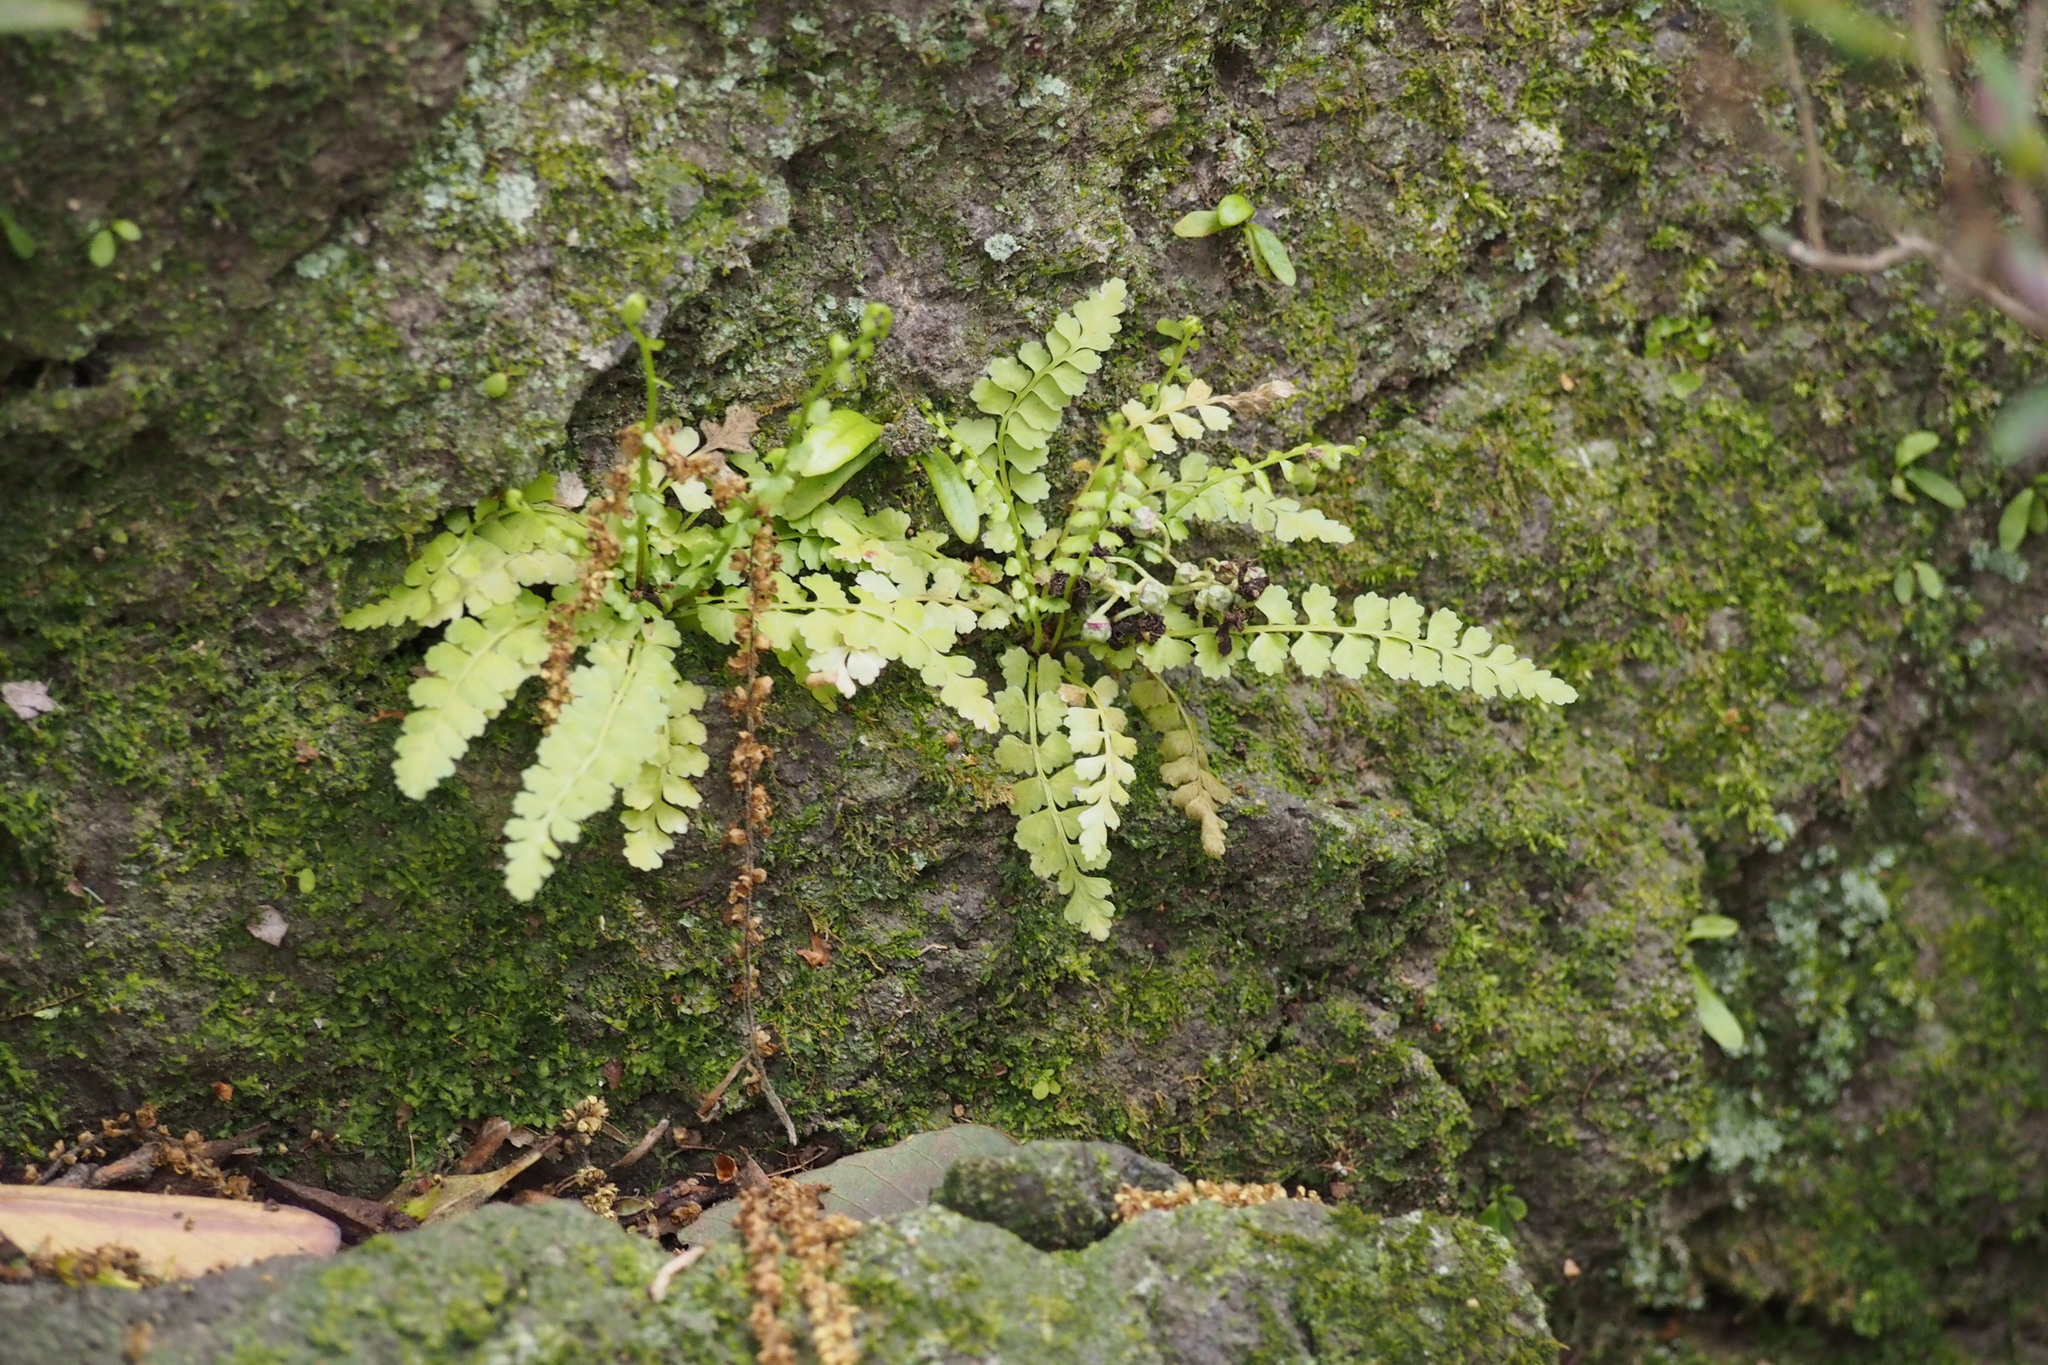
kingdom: Plantae
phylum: Tracheophyta
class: Polypodiopsida
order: Polypodiales
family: Aspleniaceae
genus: Asplenium
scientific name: Asplenium incisum
